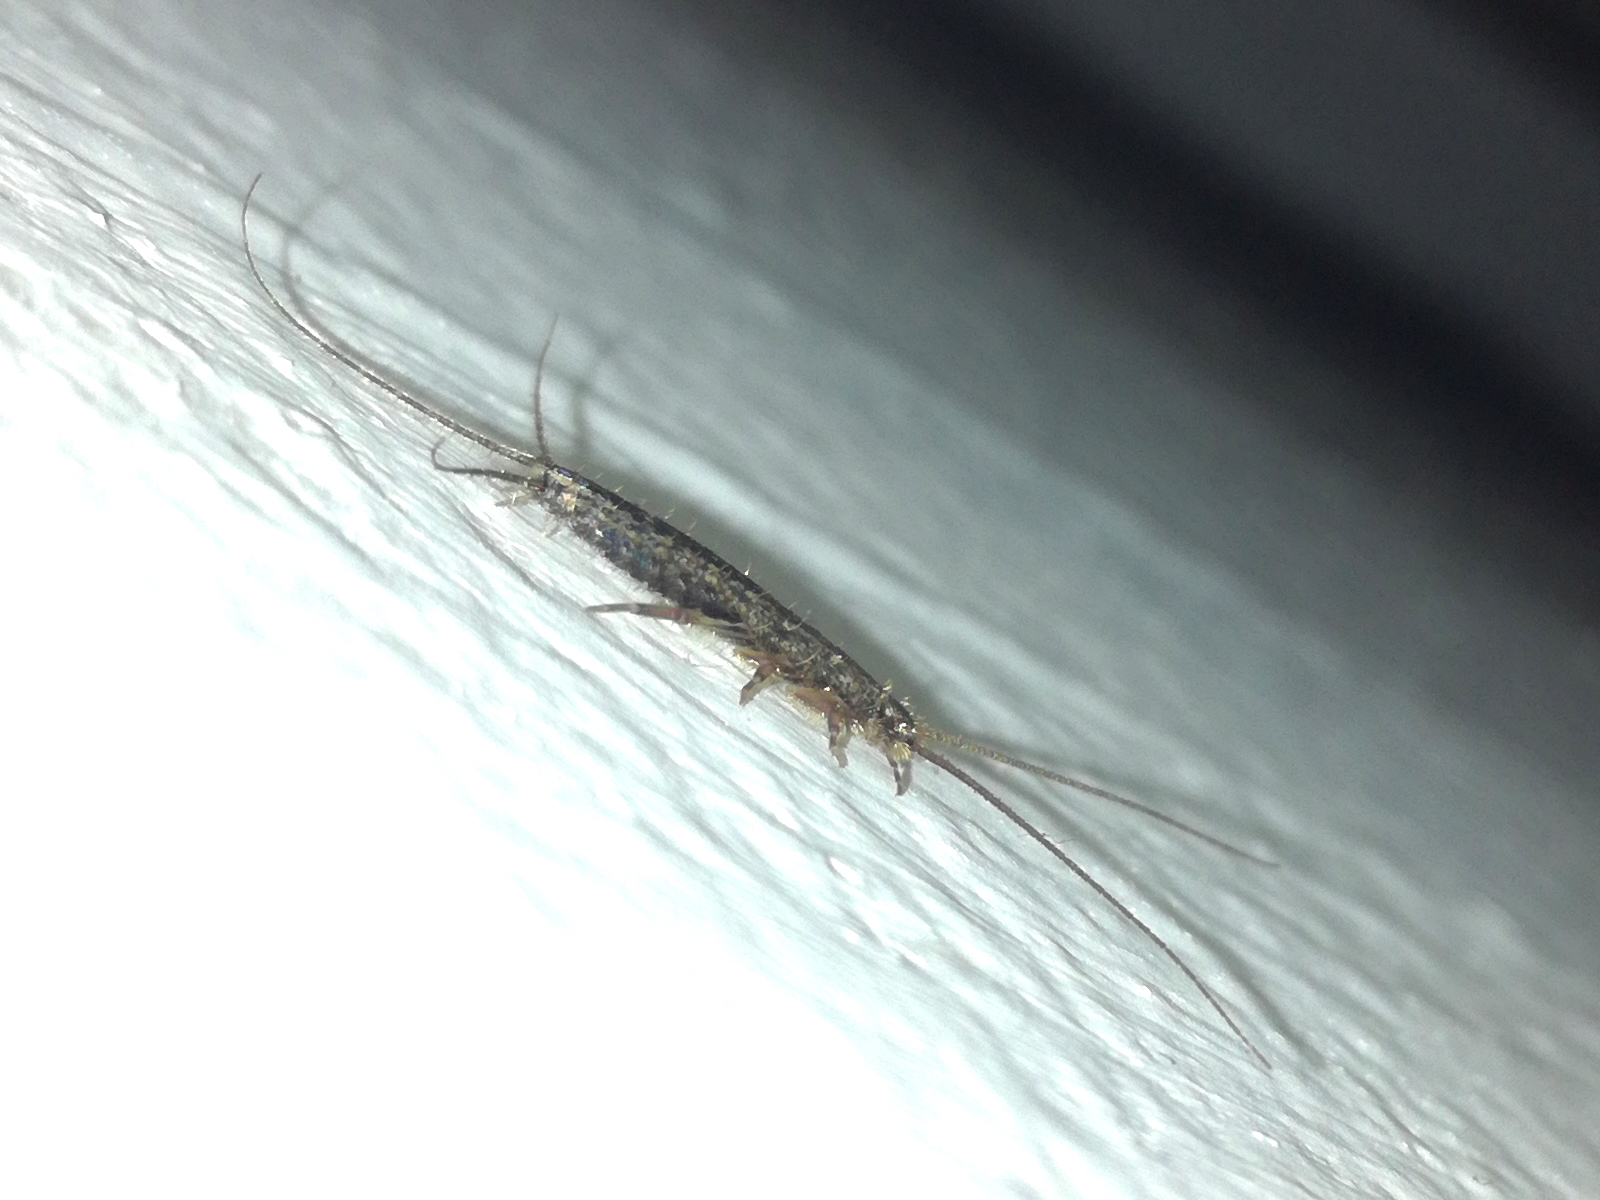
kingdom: Animalia
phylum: Arthropoda
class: Insecta
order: Zygentoma
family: Lepismatidae
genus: Ctenolepisma
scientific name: Ctenolepisma lineata
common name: Four-lined silverfish
